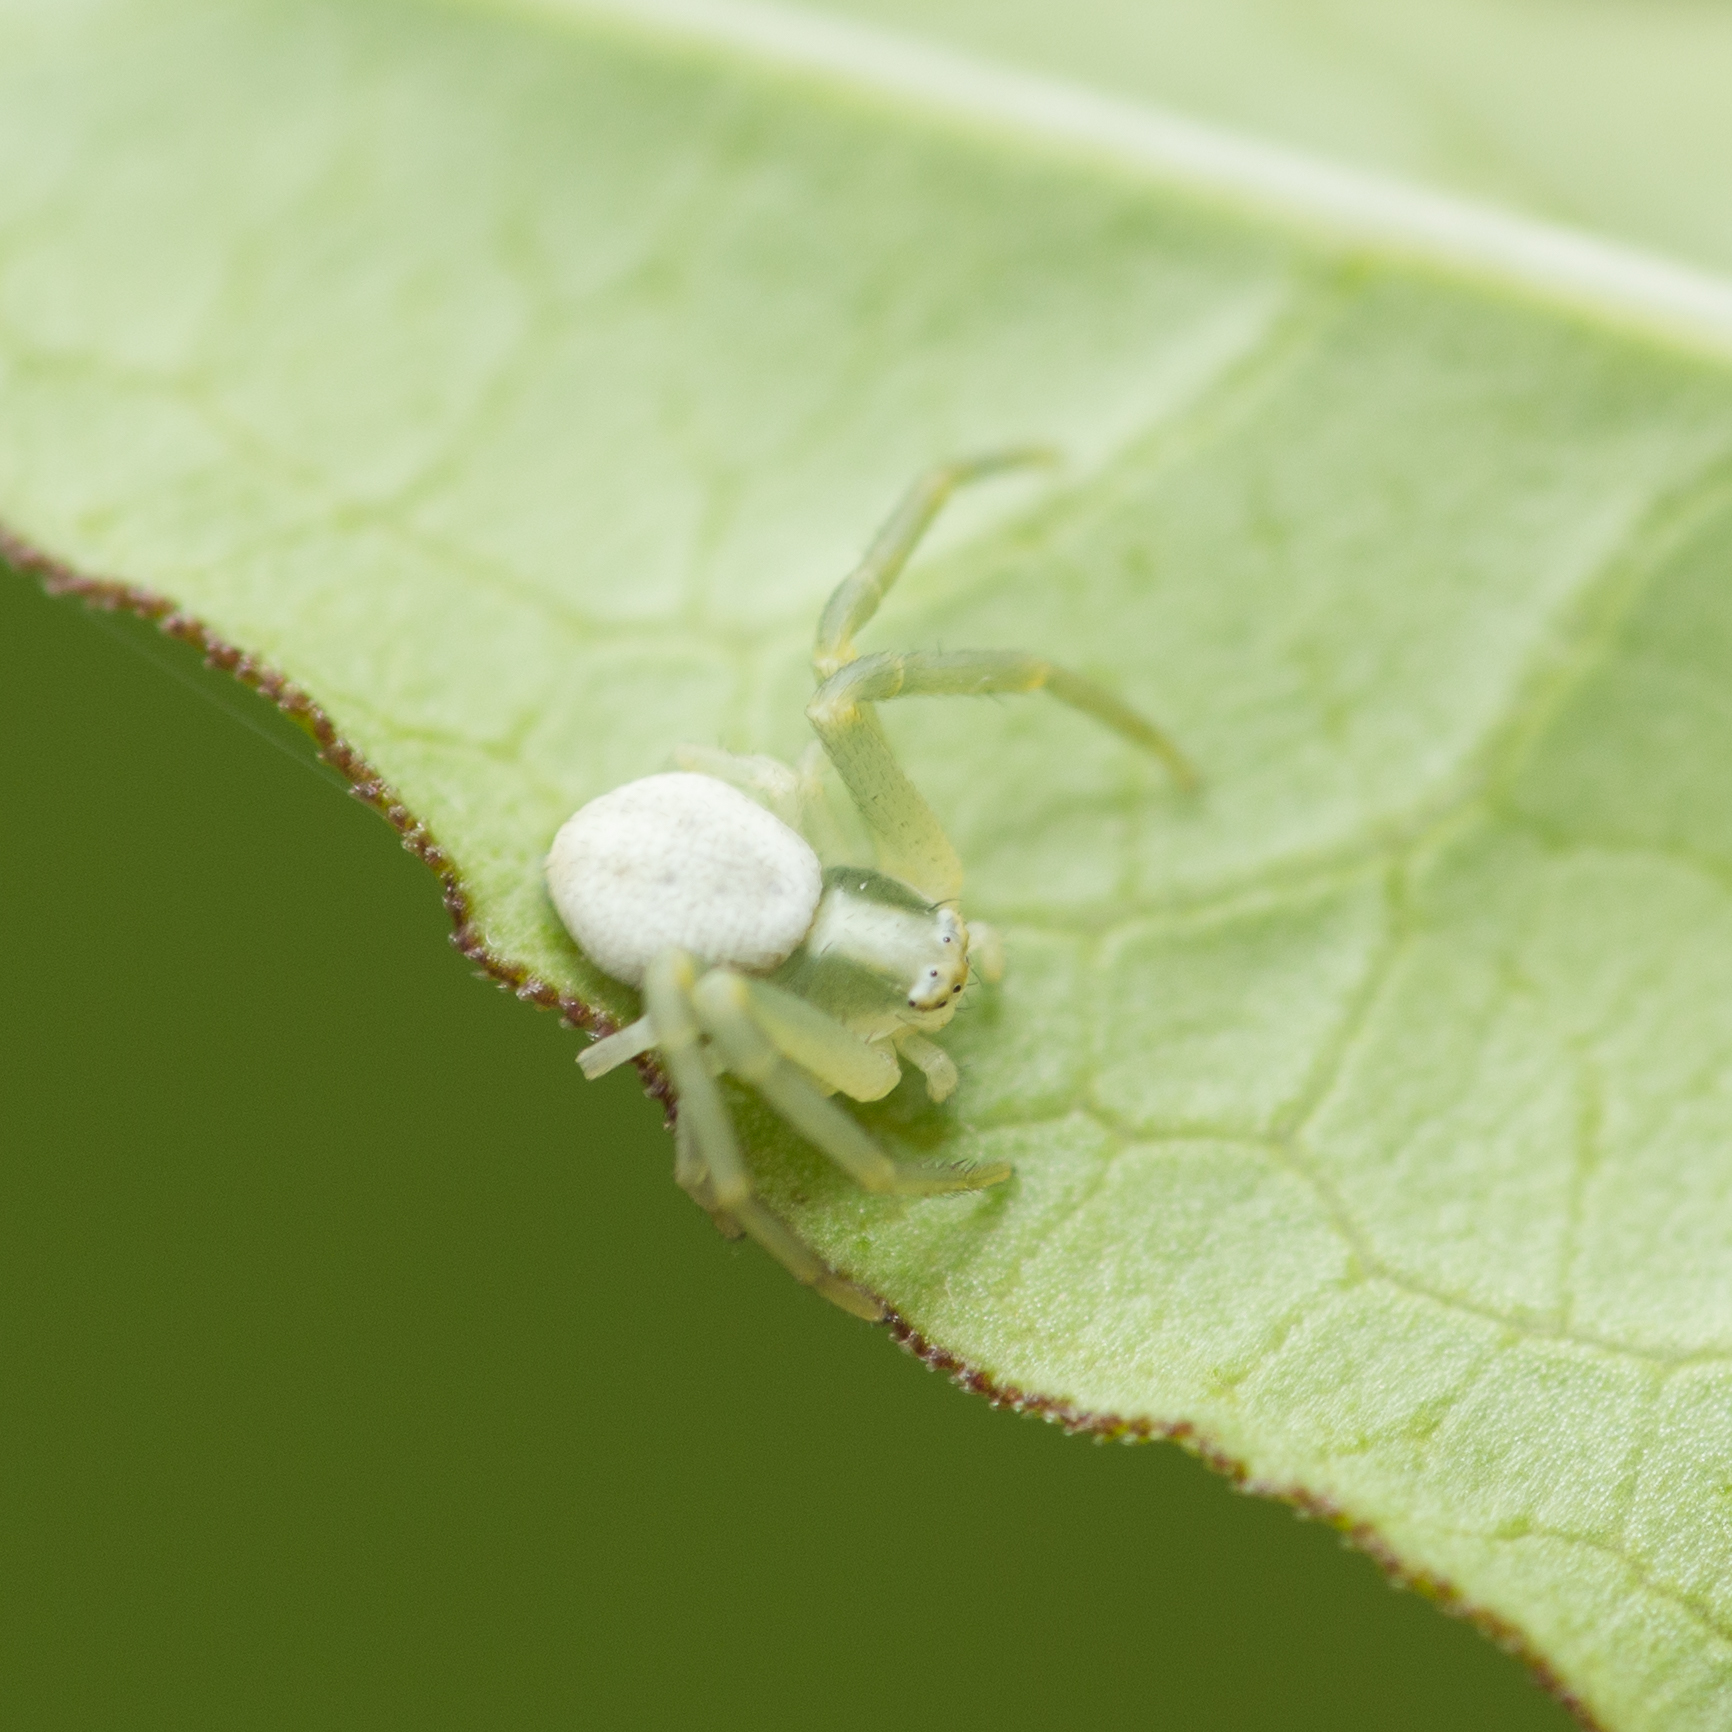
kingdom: Animalia
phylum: Arthropoda
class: Arachnida
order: Araneae
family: Thomisidae
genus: Misumena
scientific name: Misumena vatia
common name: Goldenrod crab spider
